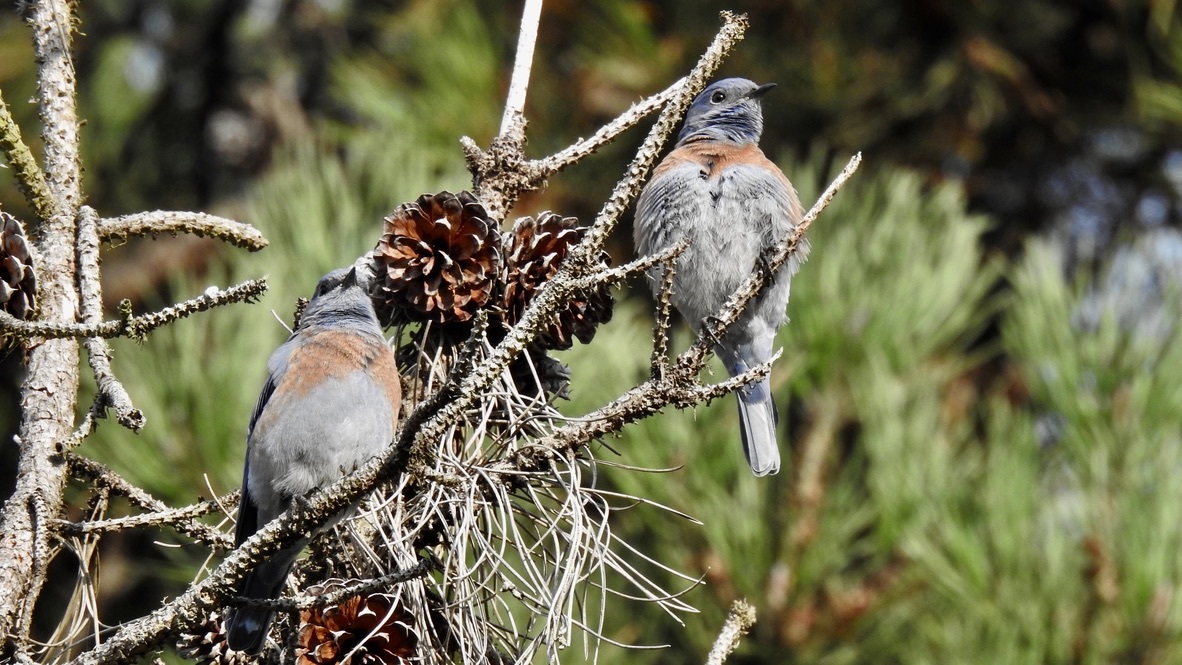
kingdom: Animalia
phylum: Chordata
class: Aves
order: Passeriformes
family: Turdidae
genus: Sialia
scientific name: Sialia mexicana
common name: Western bluebird
